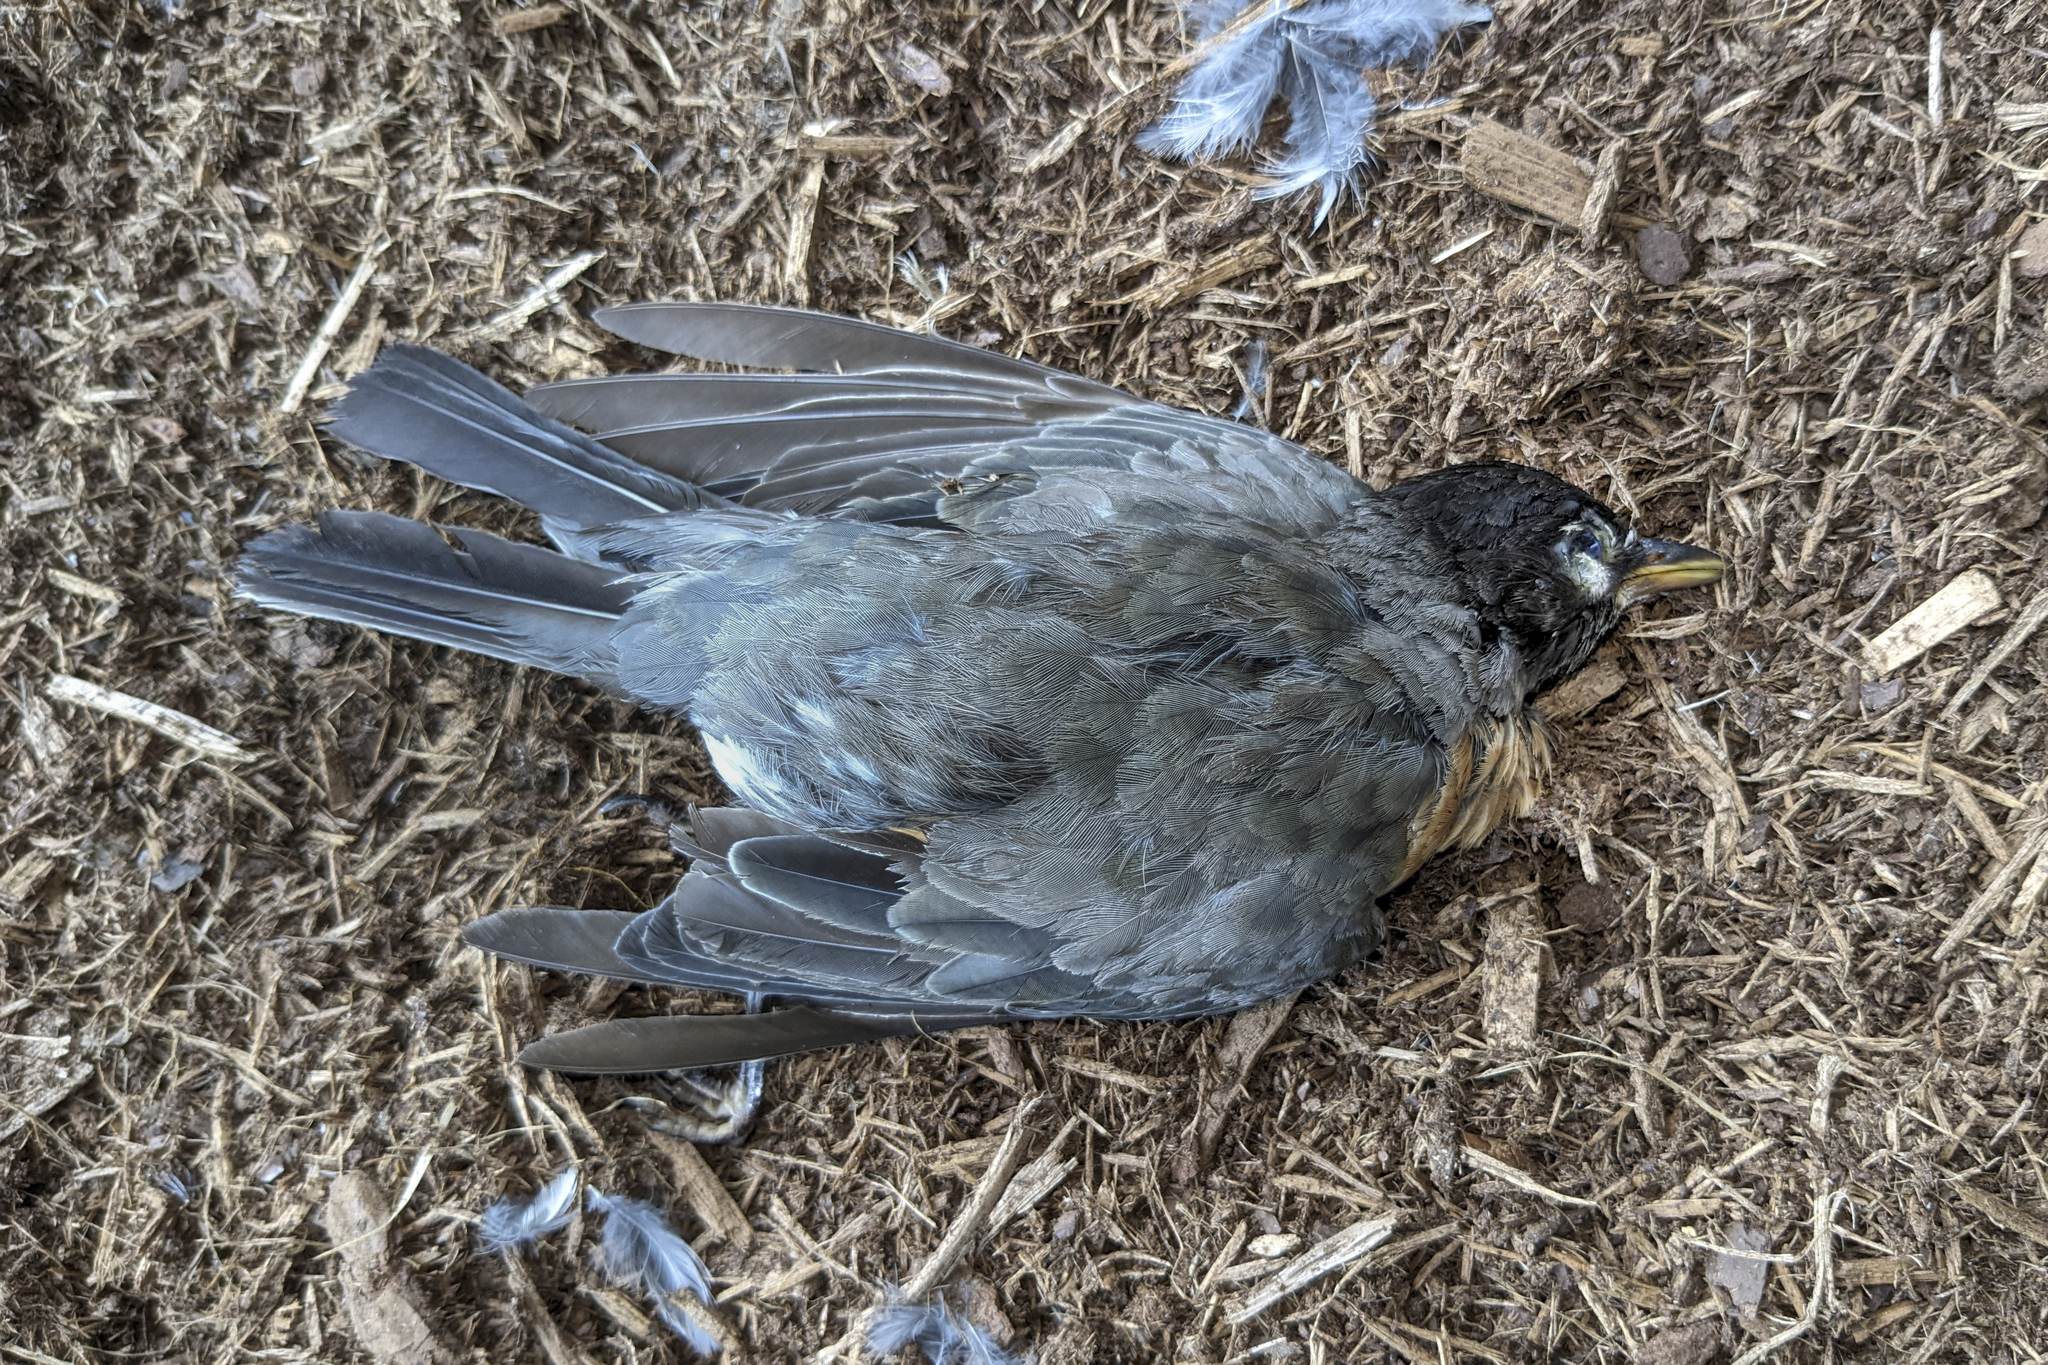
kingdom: Animalia
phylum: Chordata
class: Aves
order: Passeriformes
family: Turdidae
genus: Turdus
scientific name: Turdus migratorius
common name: American robin
